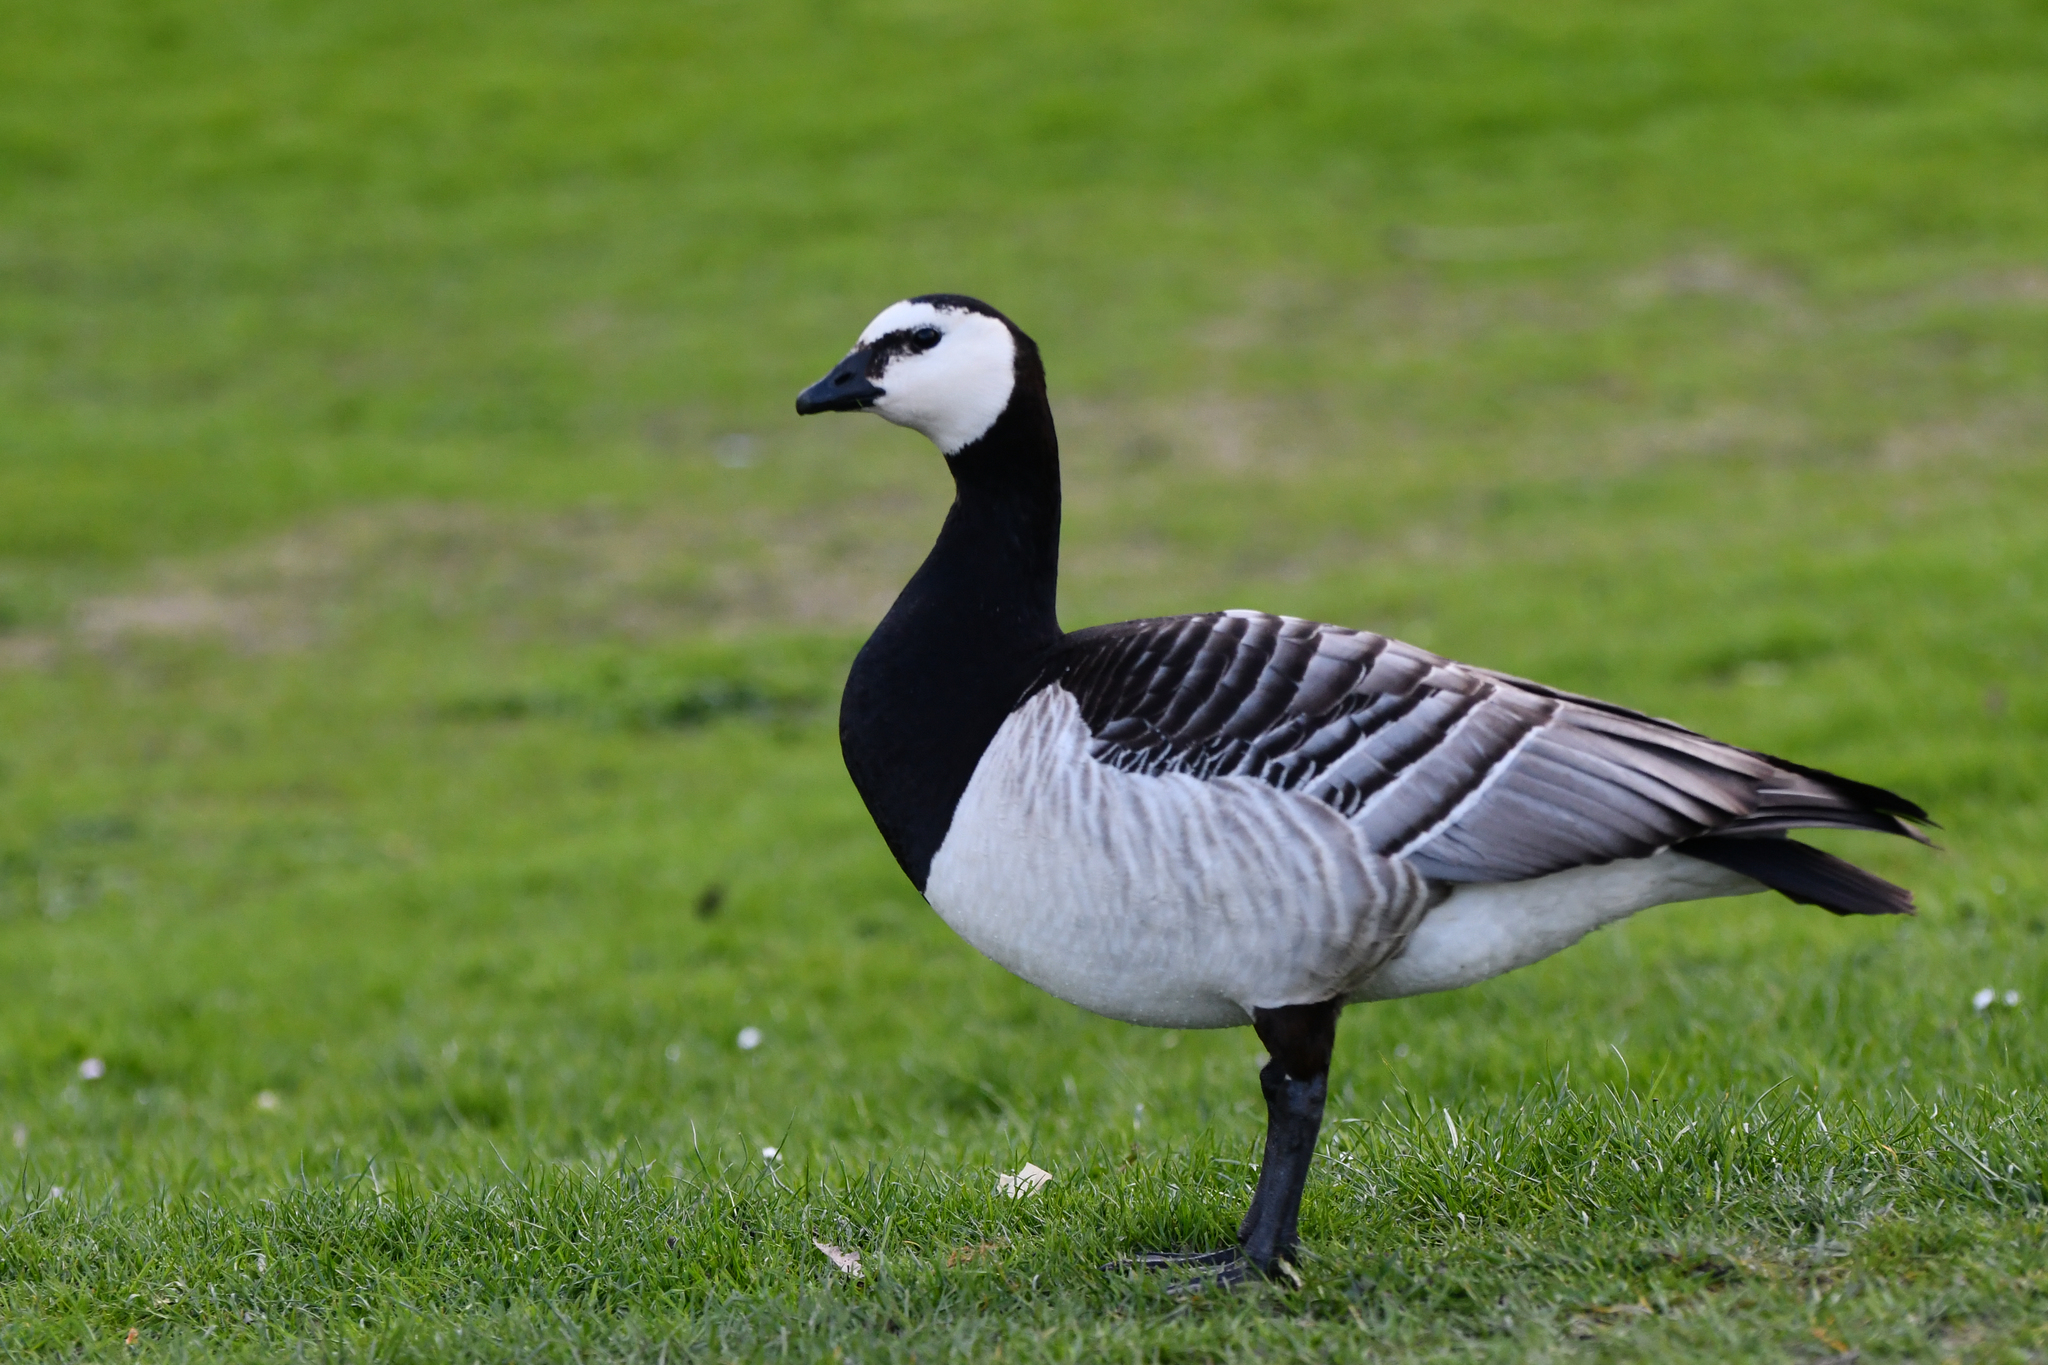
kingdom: Animalia
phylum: Chordata
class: Aves
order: Anseriformes
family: Anatidae
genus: Branta
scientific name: Branta leucopsis
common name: Barnacle goose
